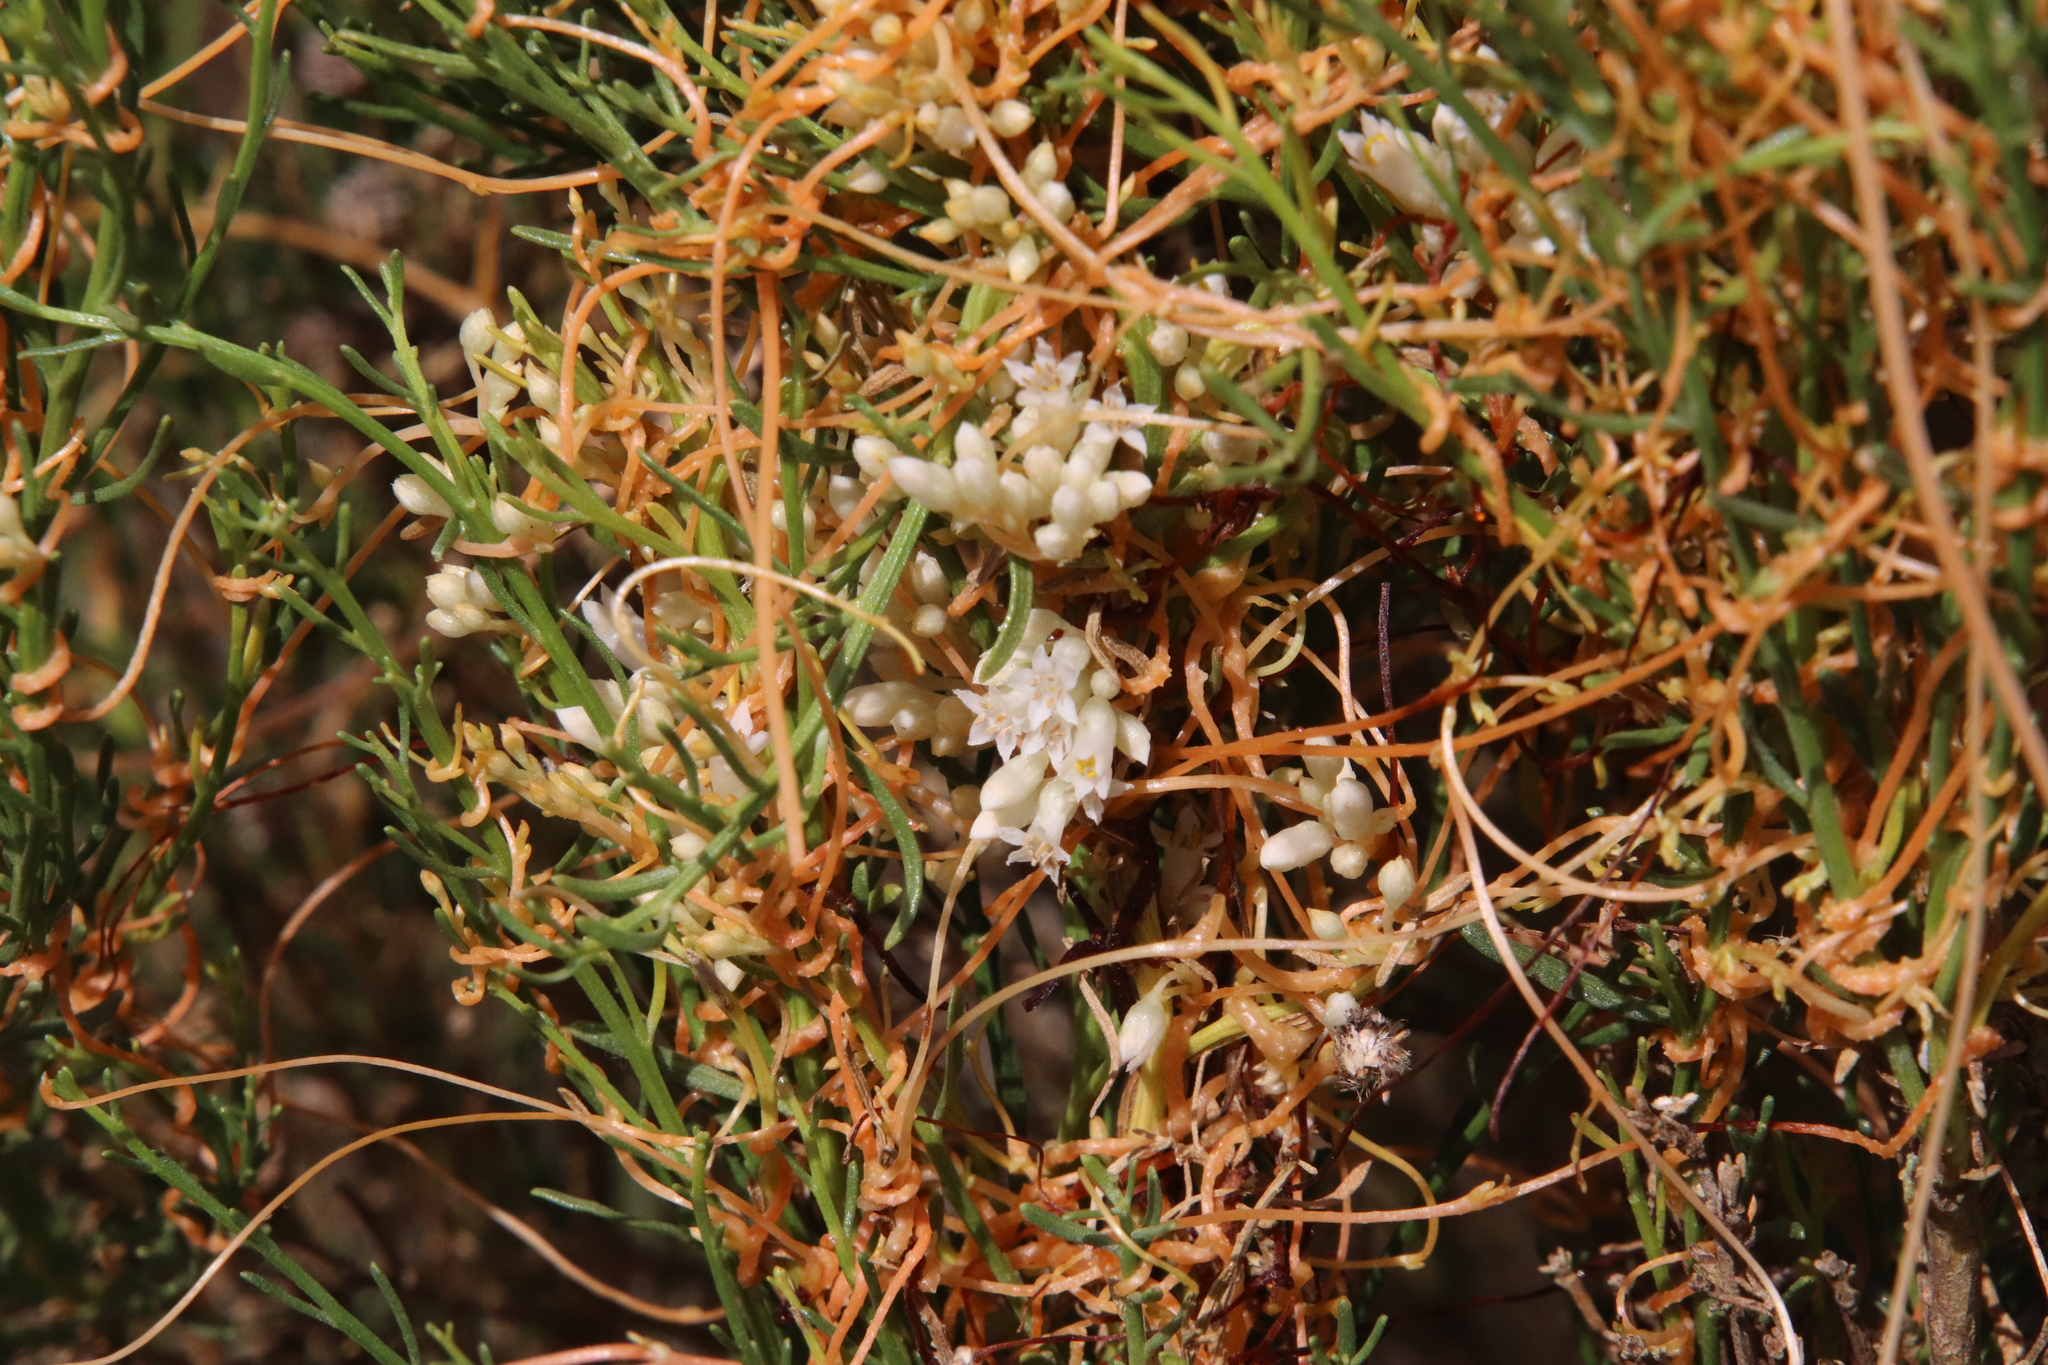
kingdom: Plantae
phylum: Tracheophyta
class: Magnoliopsida
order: Solanales
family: Convolvulaceae
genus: Cuscuta
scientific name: Cuscuta subinclusa
